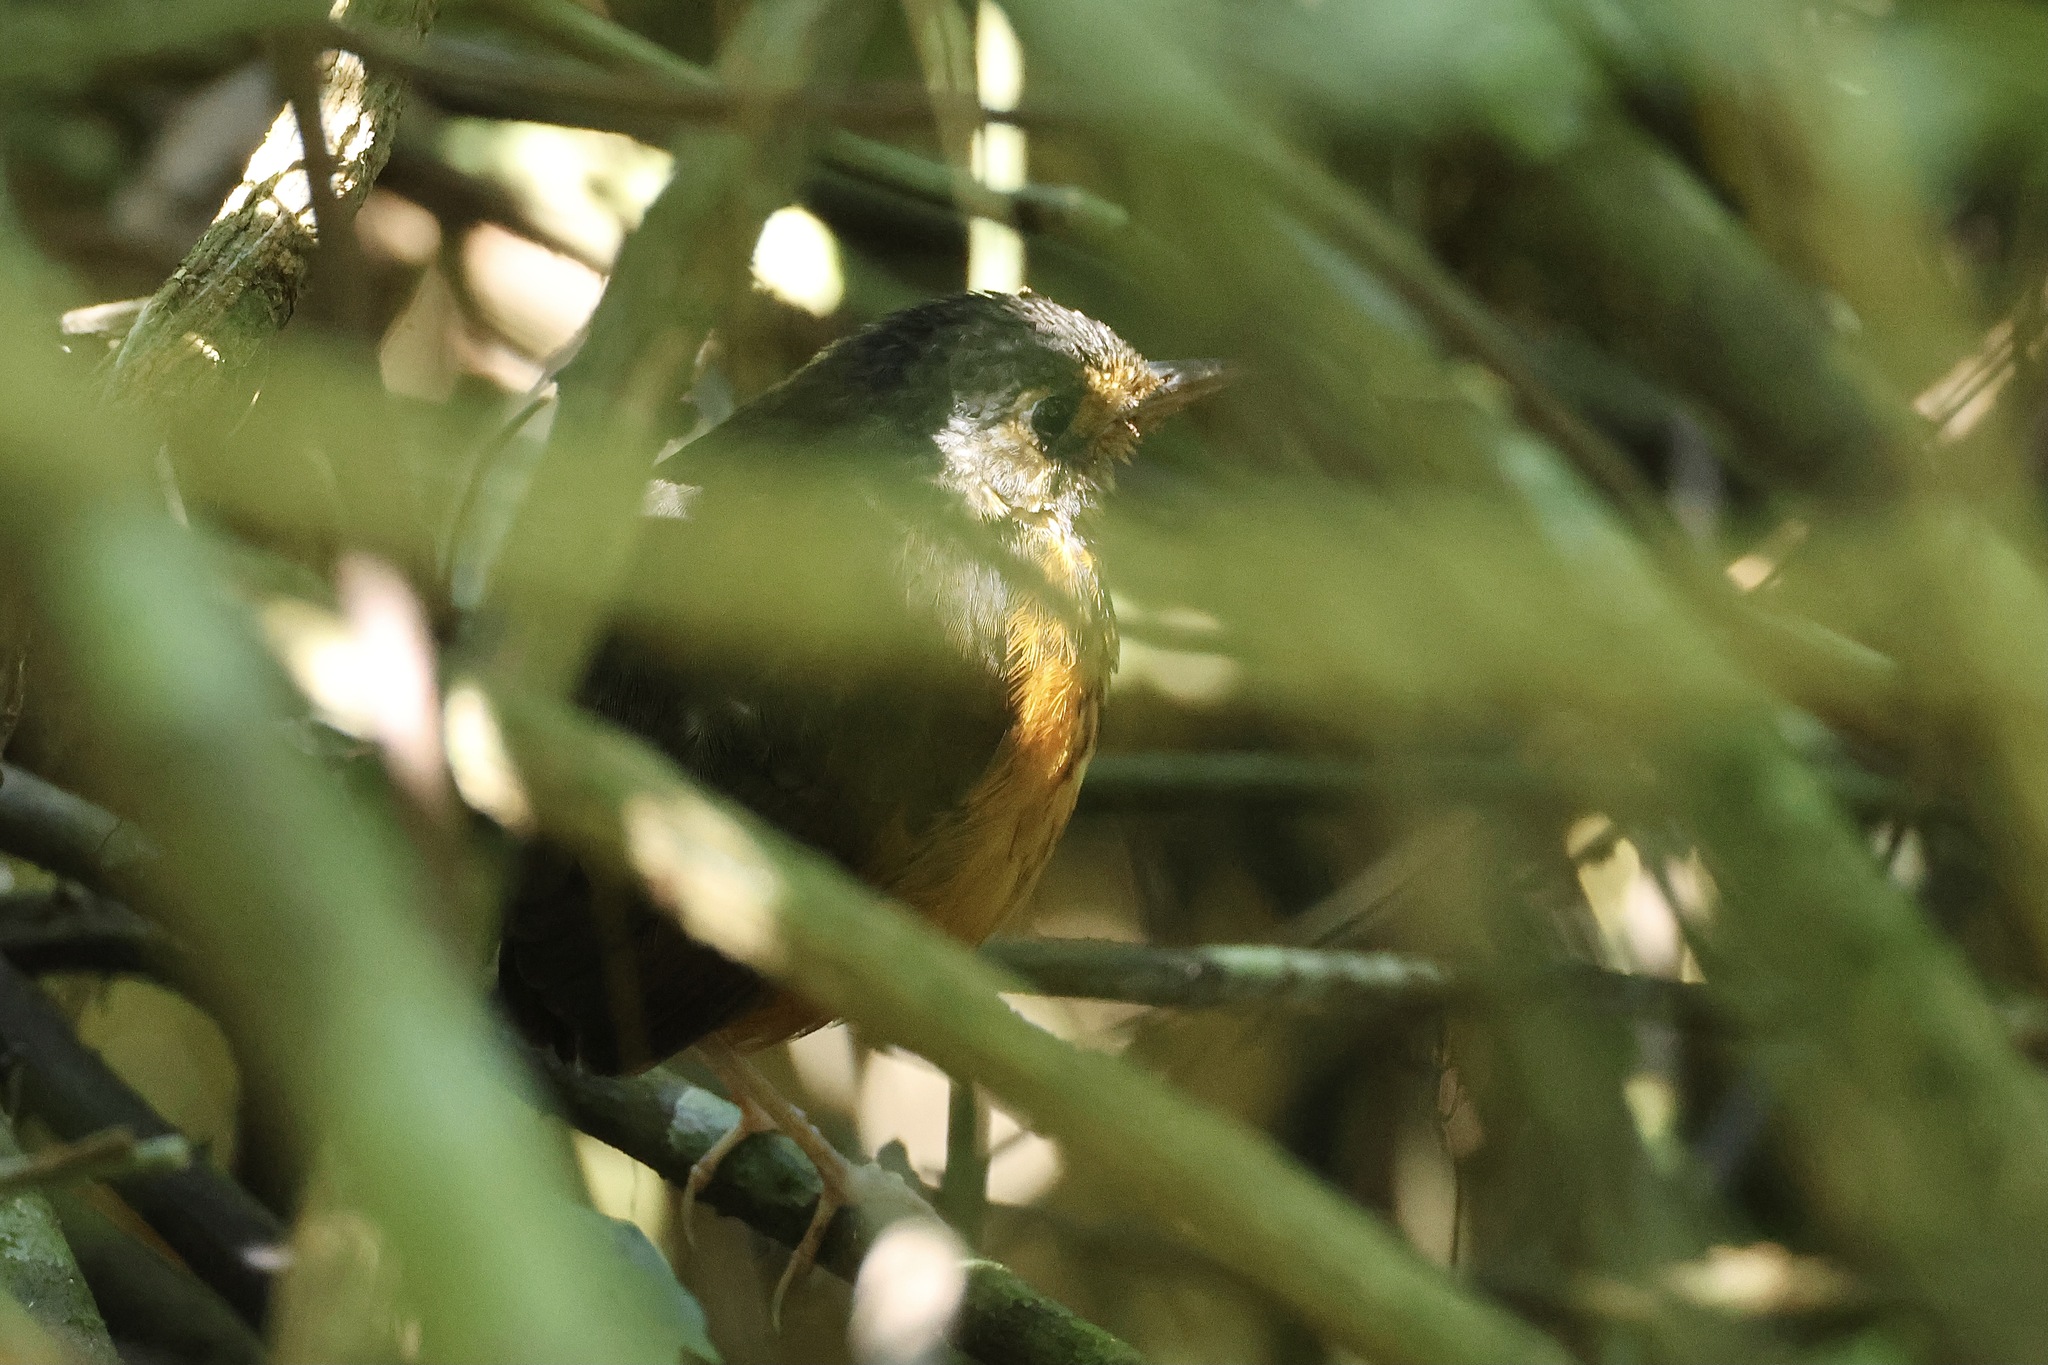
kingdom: Animalia
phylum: Chordata
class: Aves
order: Passeriformes
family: Grallariidae
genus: Hylopezus
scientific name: Hylopezus dives
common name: Thicket antpitta
